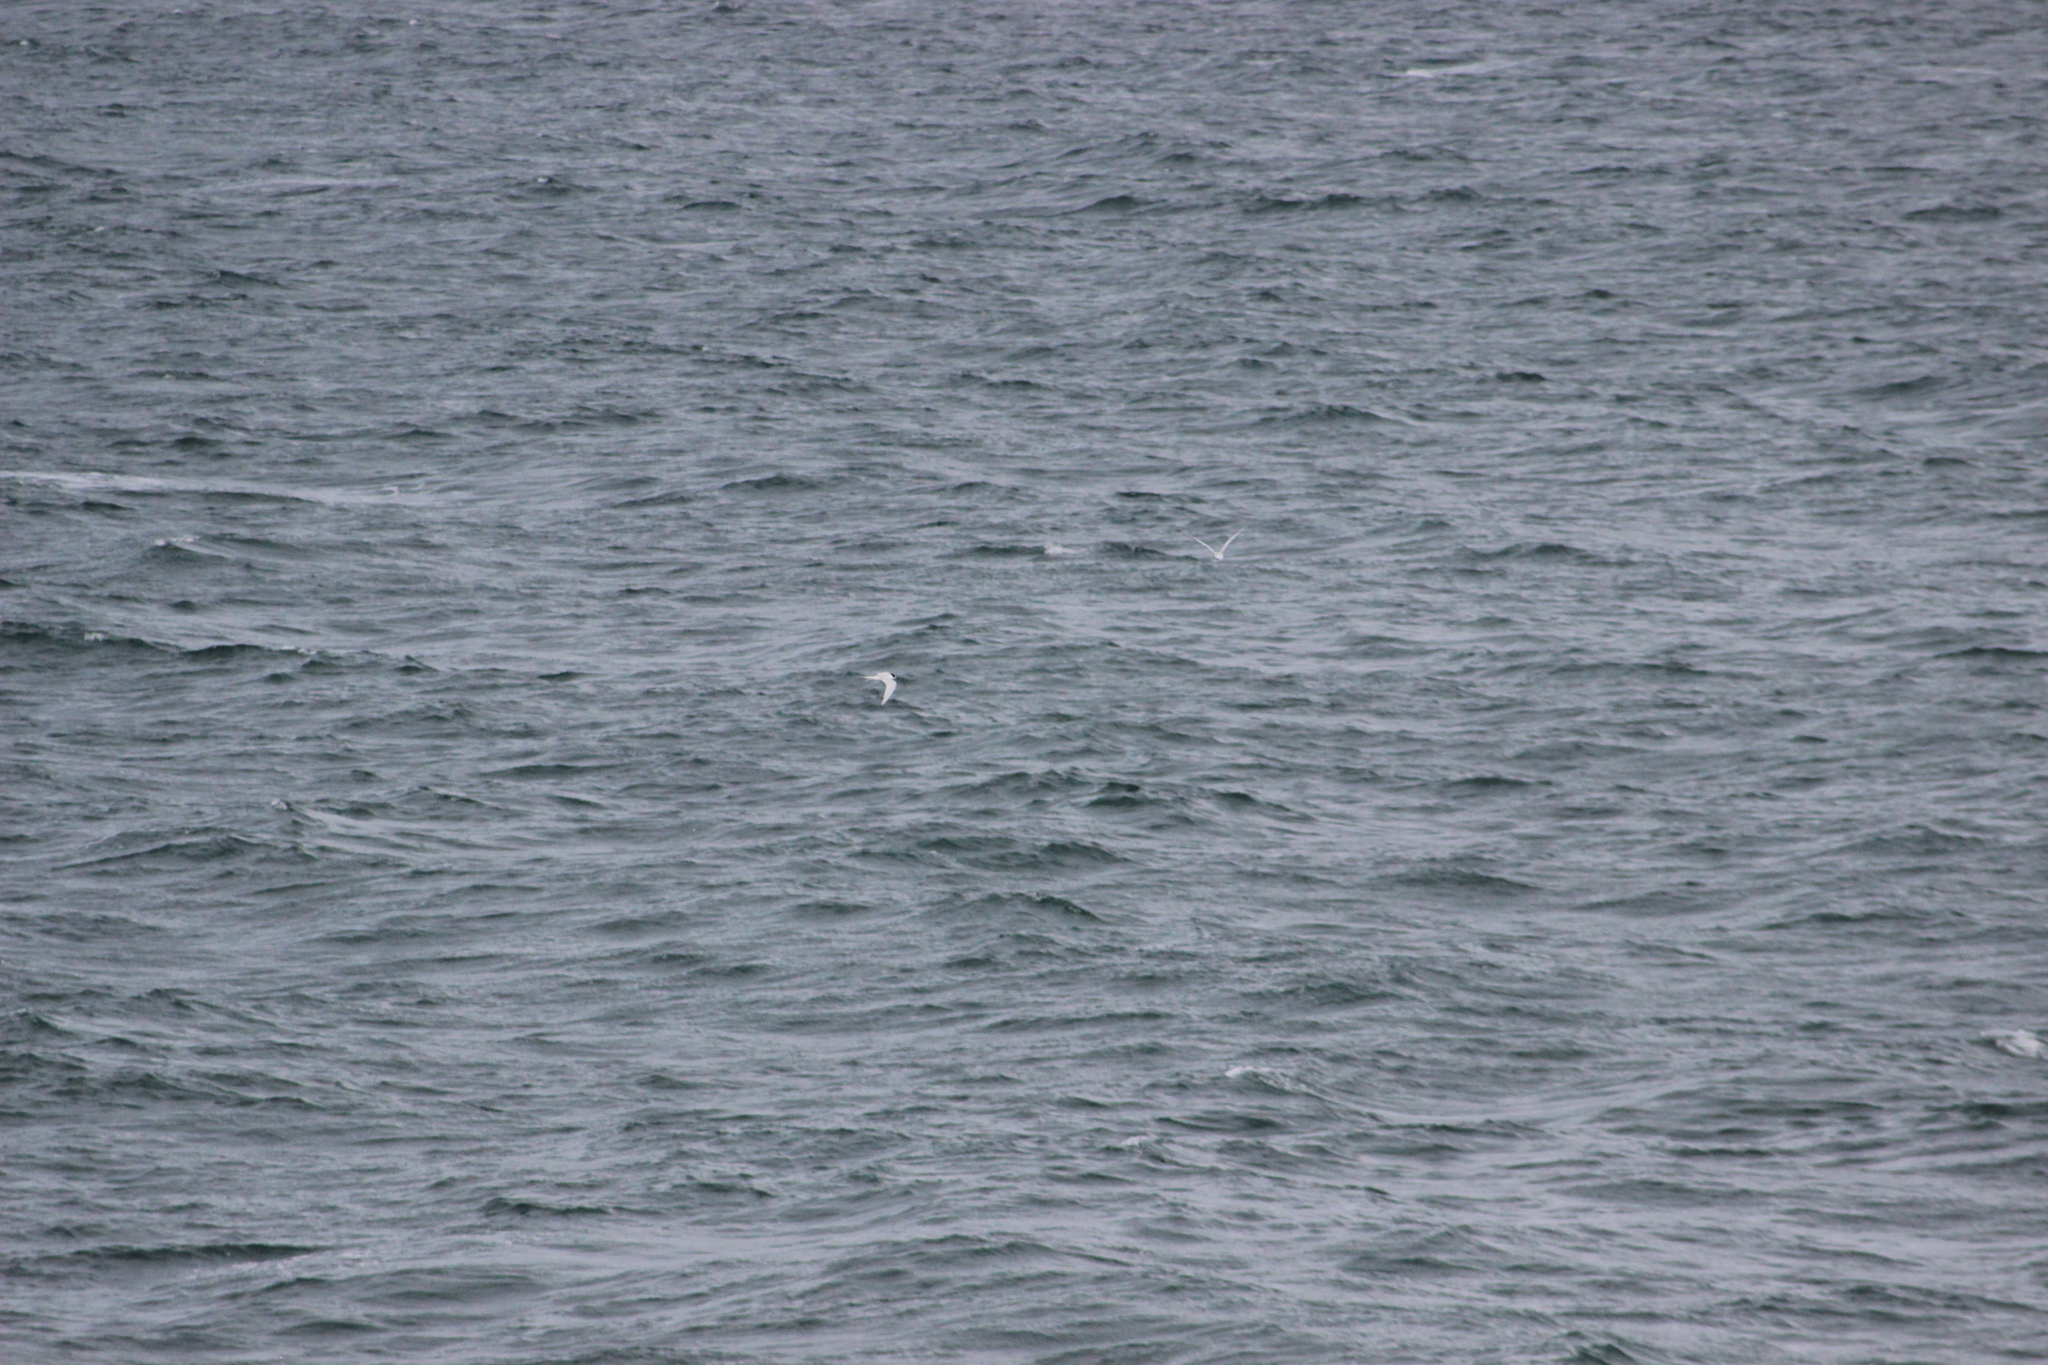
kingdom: Animalia
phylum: Chordata
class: Aves
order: Charadriiformes
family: Laridae
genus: Sterna
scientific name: Sterna striata
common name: White-fronted tern
